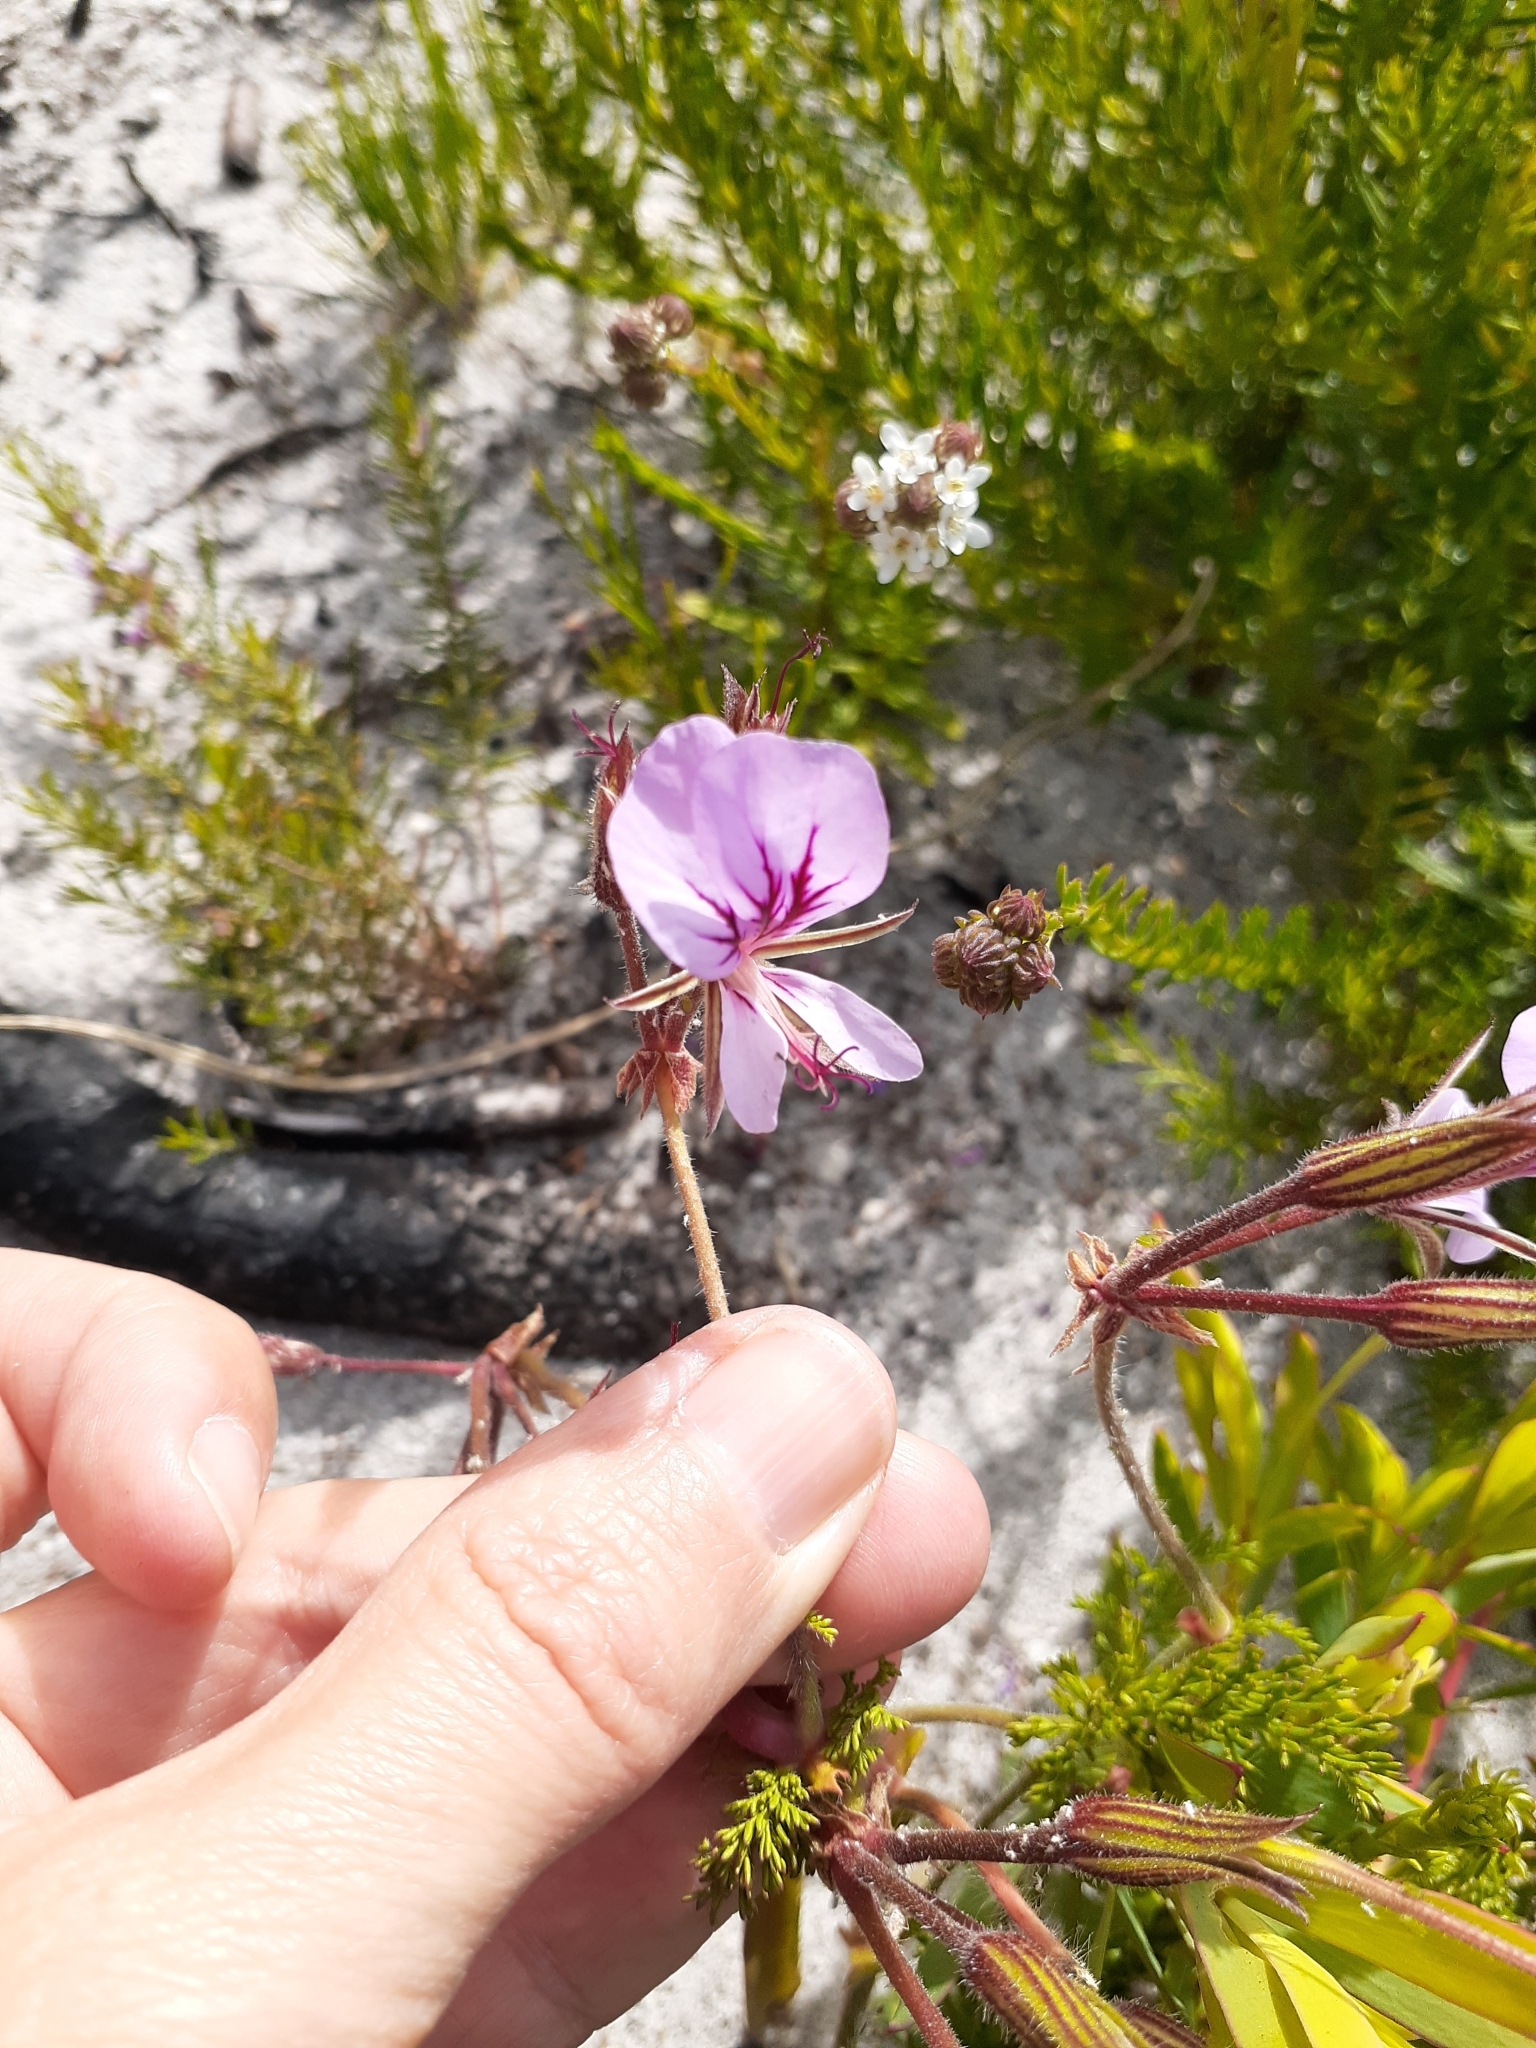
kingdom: Plantae
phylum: Tracheophyta
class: Magnoliopsida
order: Geraniales
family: Geraniaceae
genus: Pelargonium
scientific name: Pelargonium myrrhifolium
